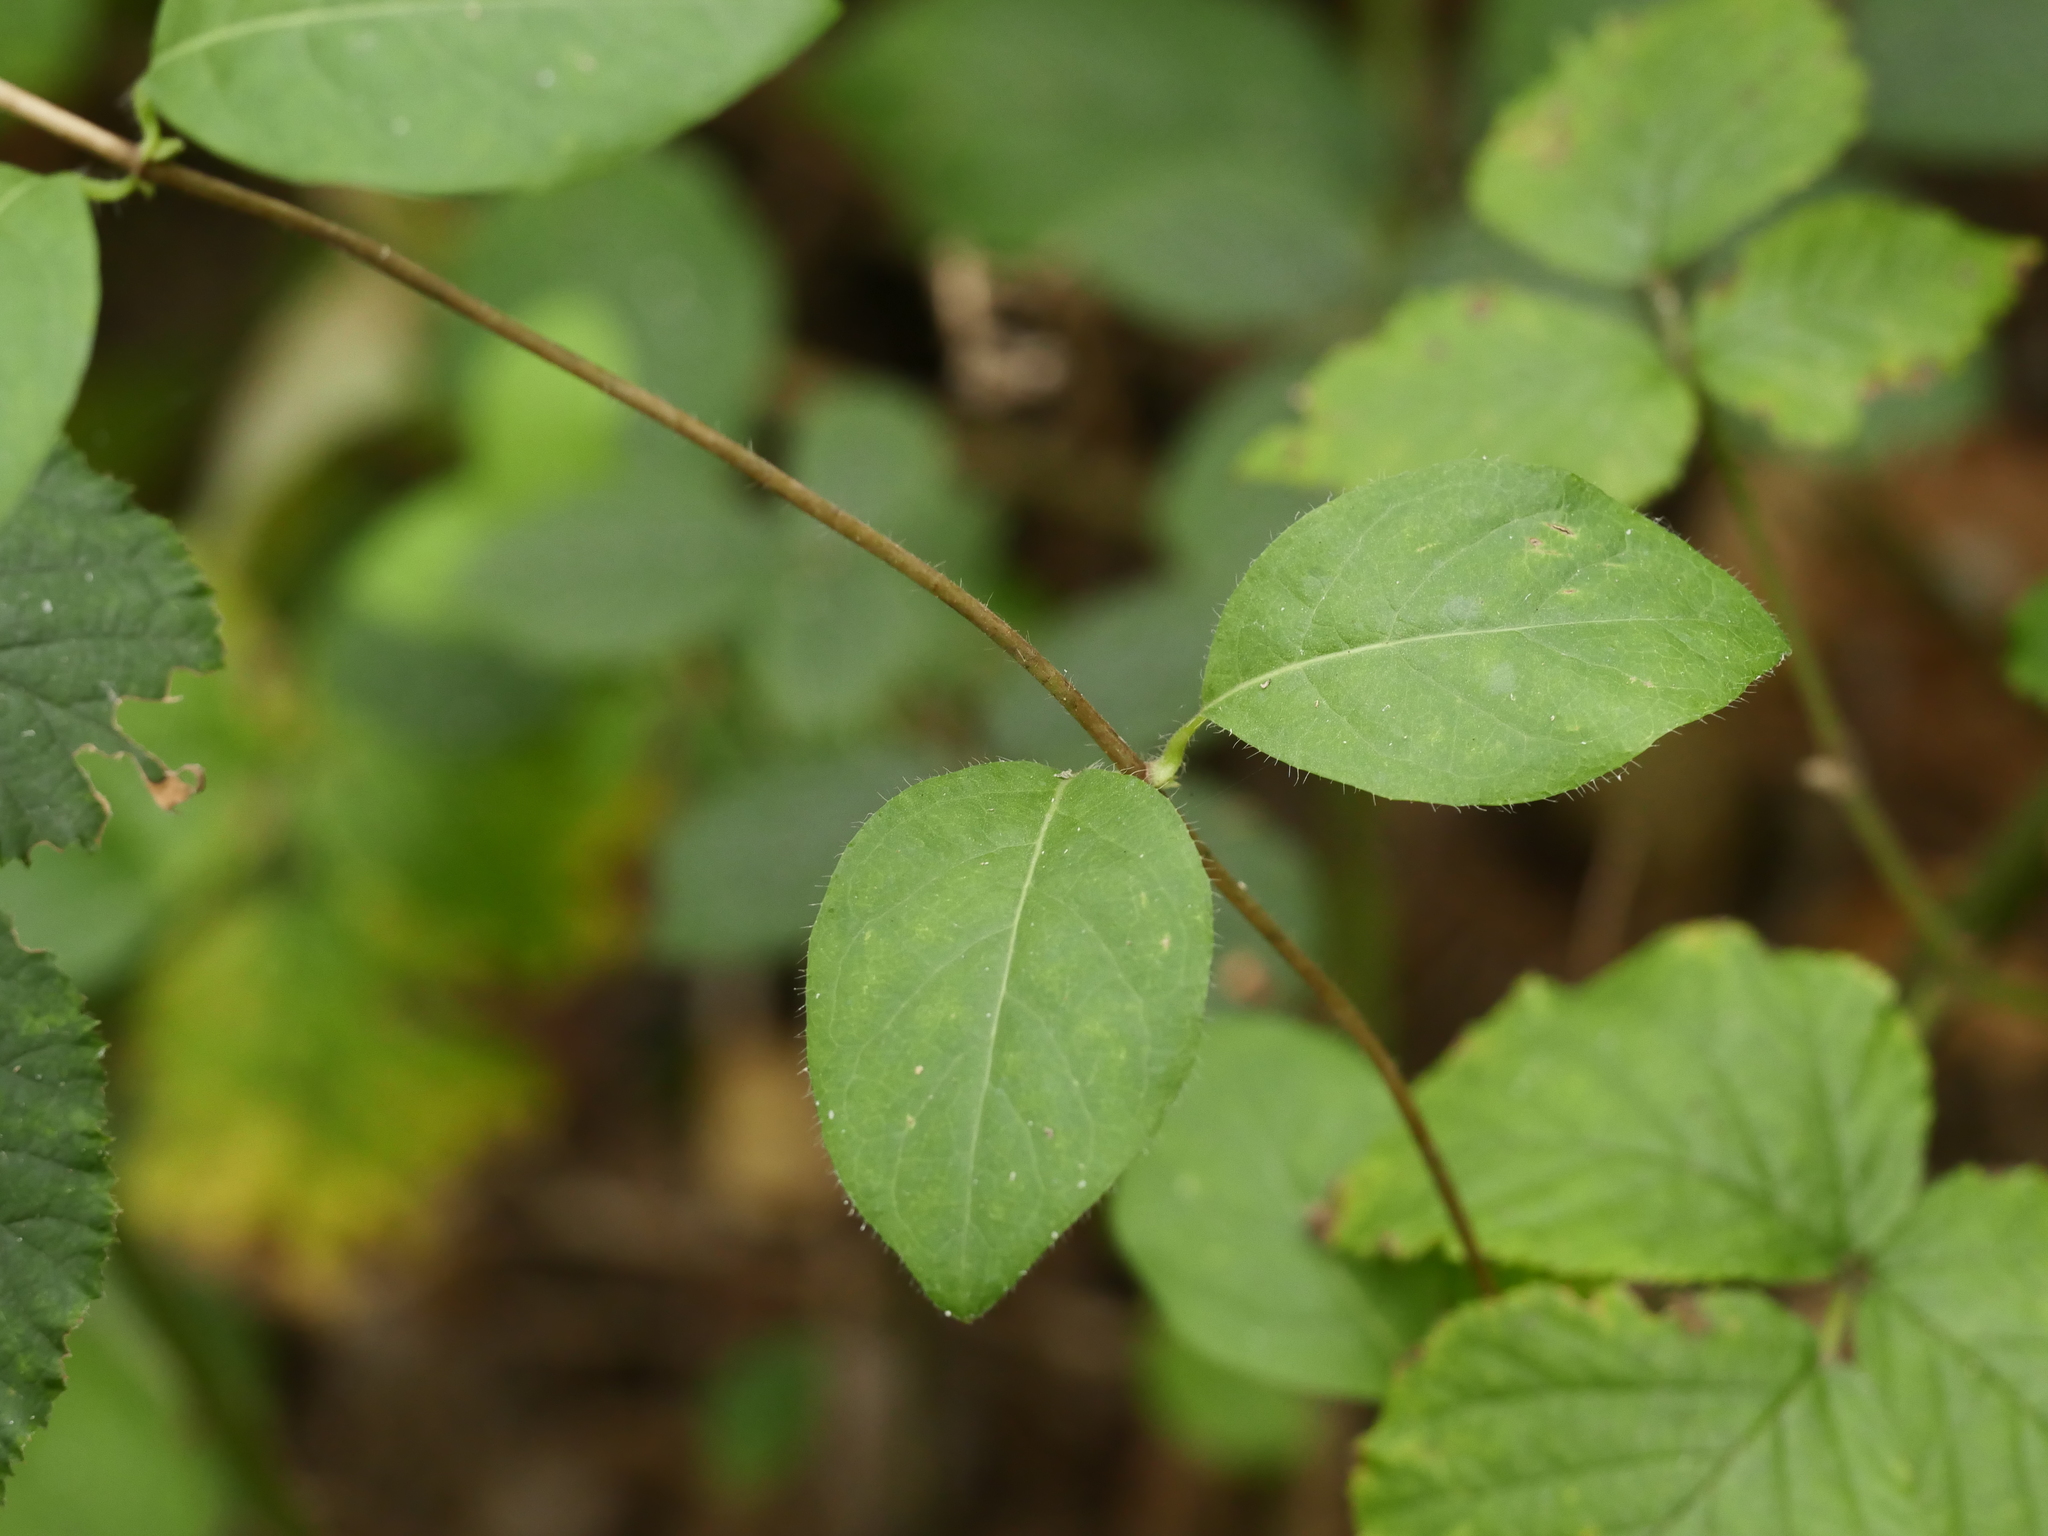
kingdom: Plantae
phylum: Tracheophyta
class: Magnoliopsida
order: Dipsacales
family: Caprifoliaceae
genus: Lonicera
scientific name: Lonicera periclymenum
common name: European honeysuckle
